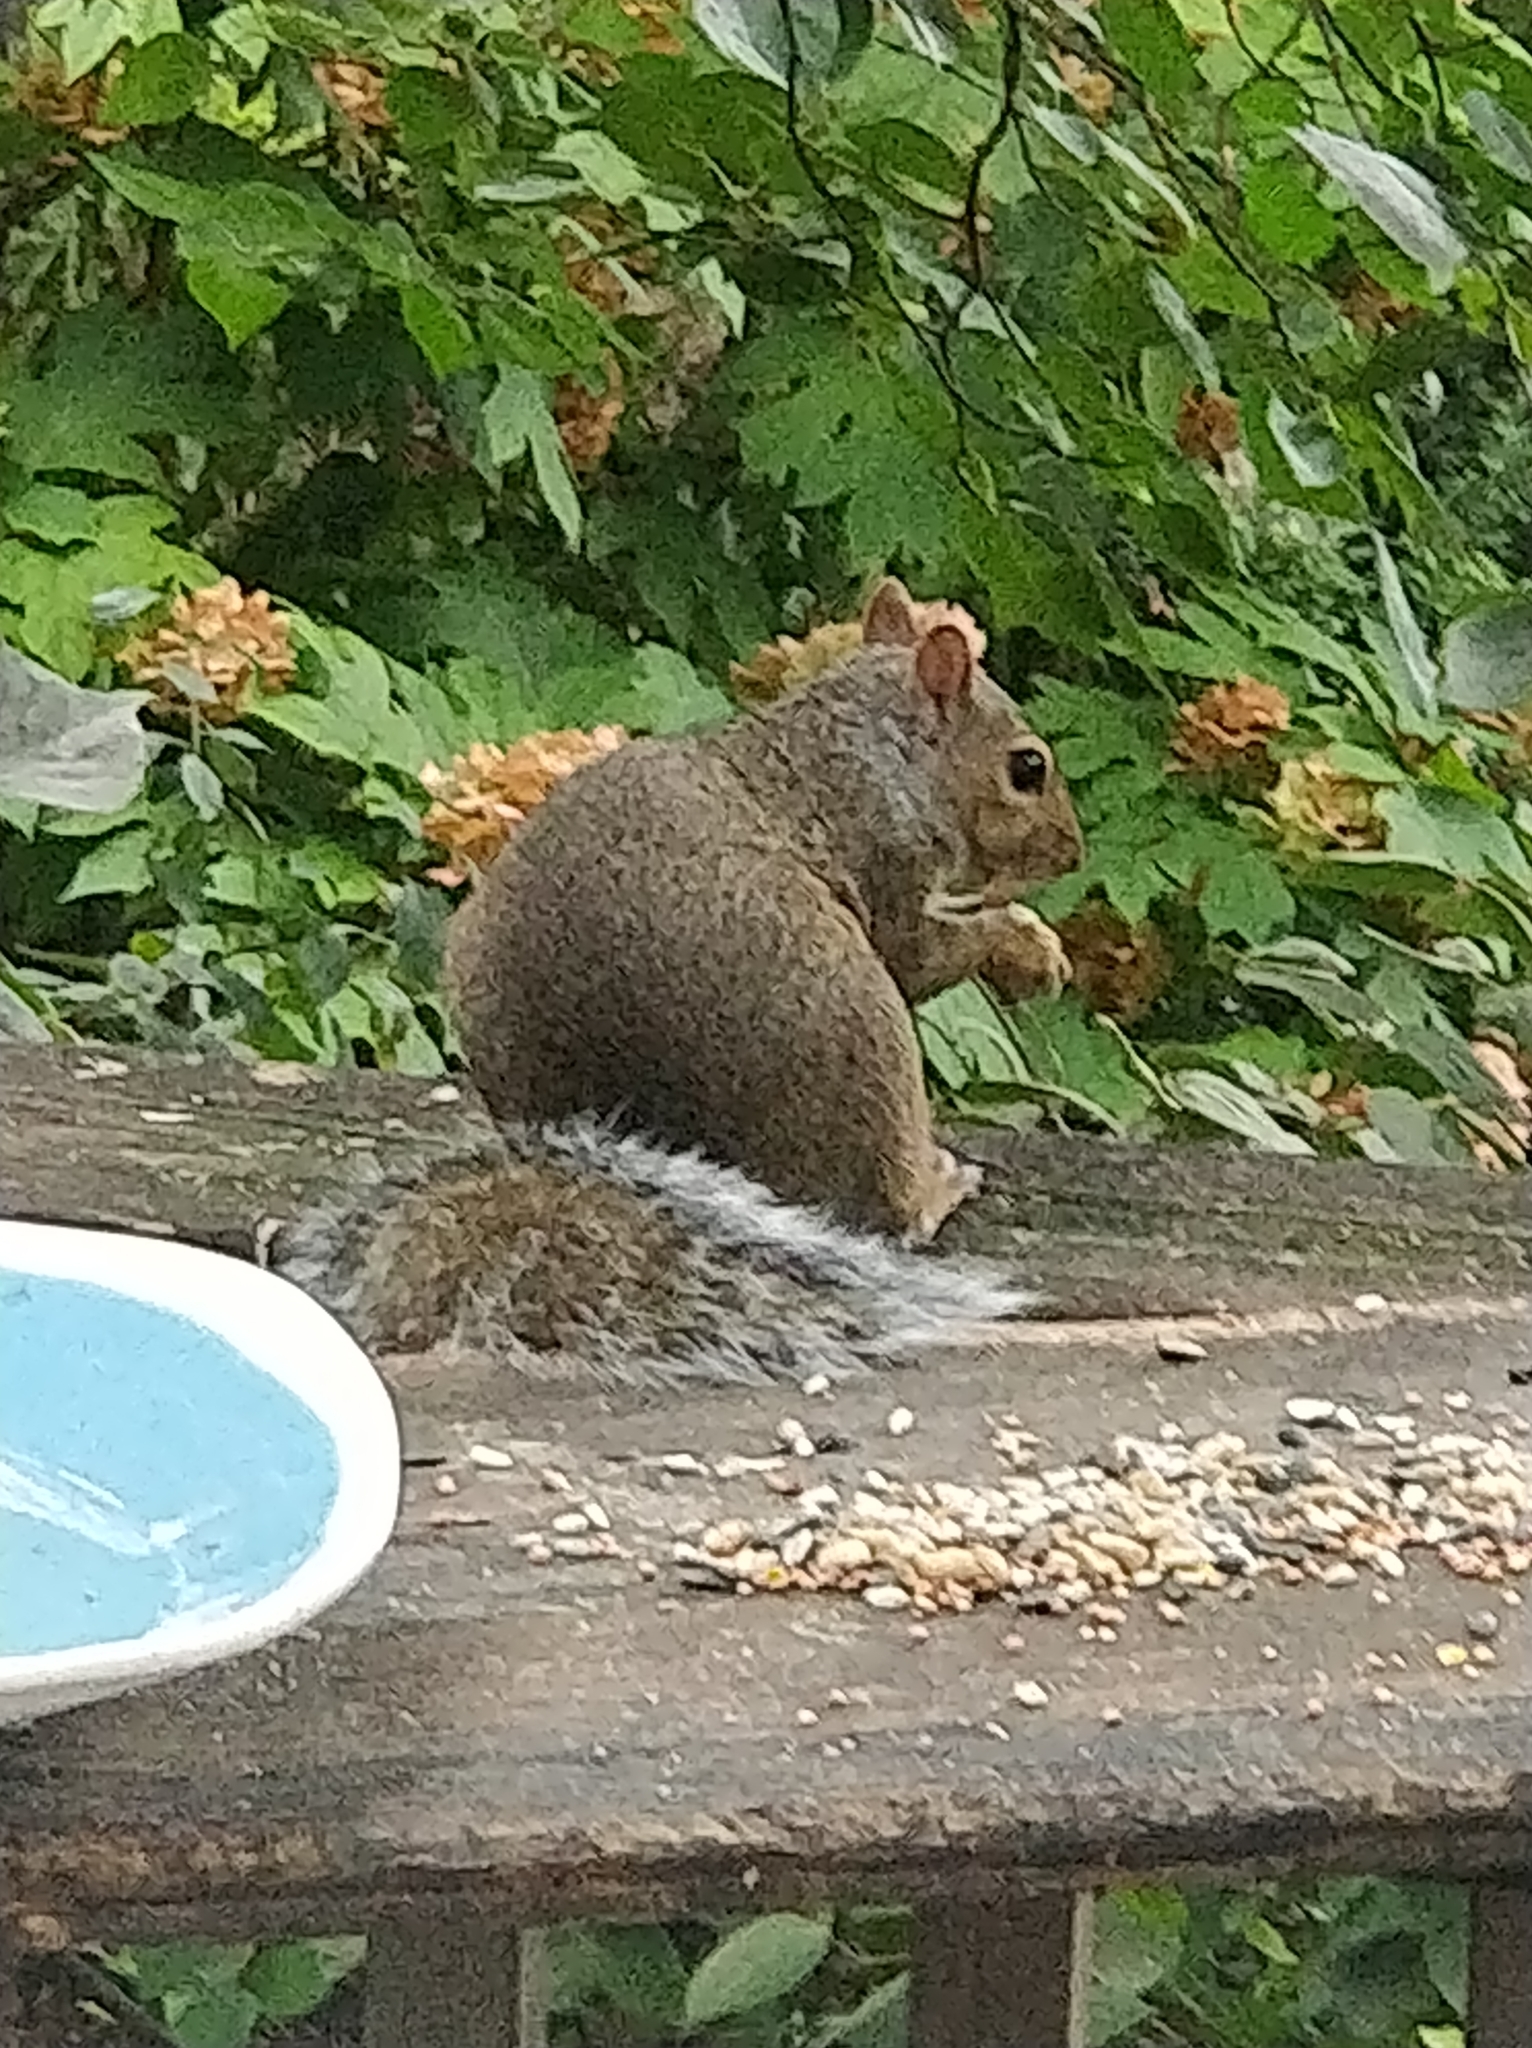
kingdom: Animalia
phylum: Chordata
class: Mammalia
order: Rodentia
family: Sciuridae
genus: Sciurus
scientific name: Sciurus carolinensis
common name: Eastern gray squirrel
